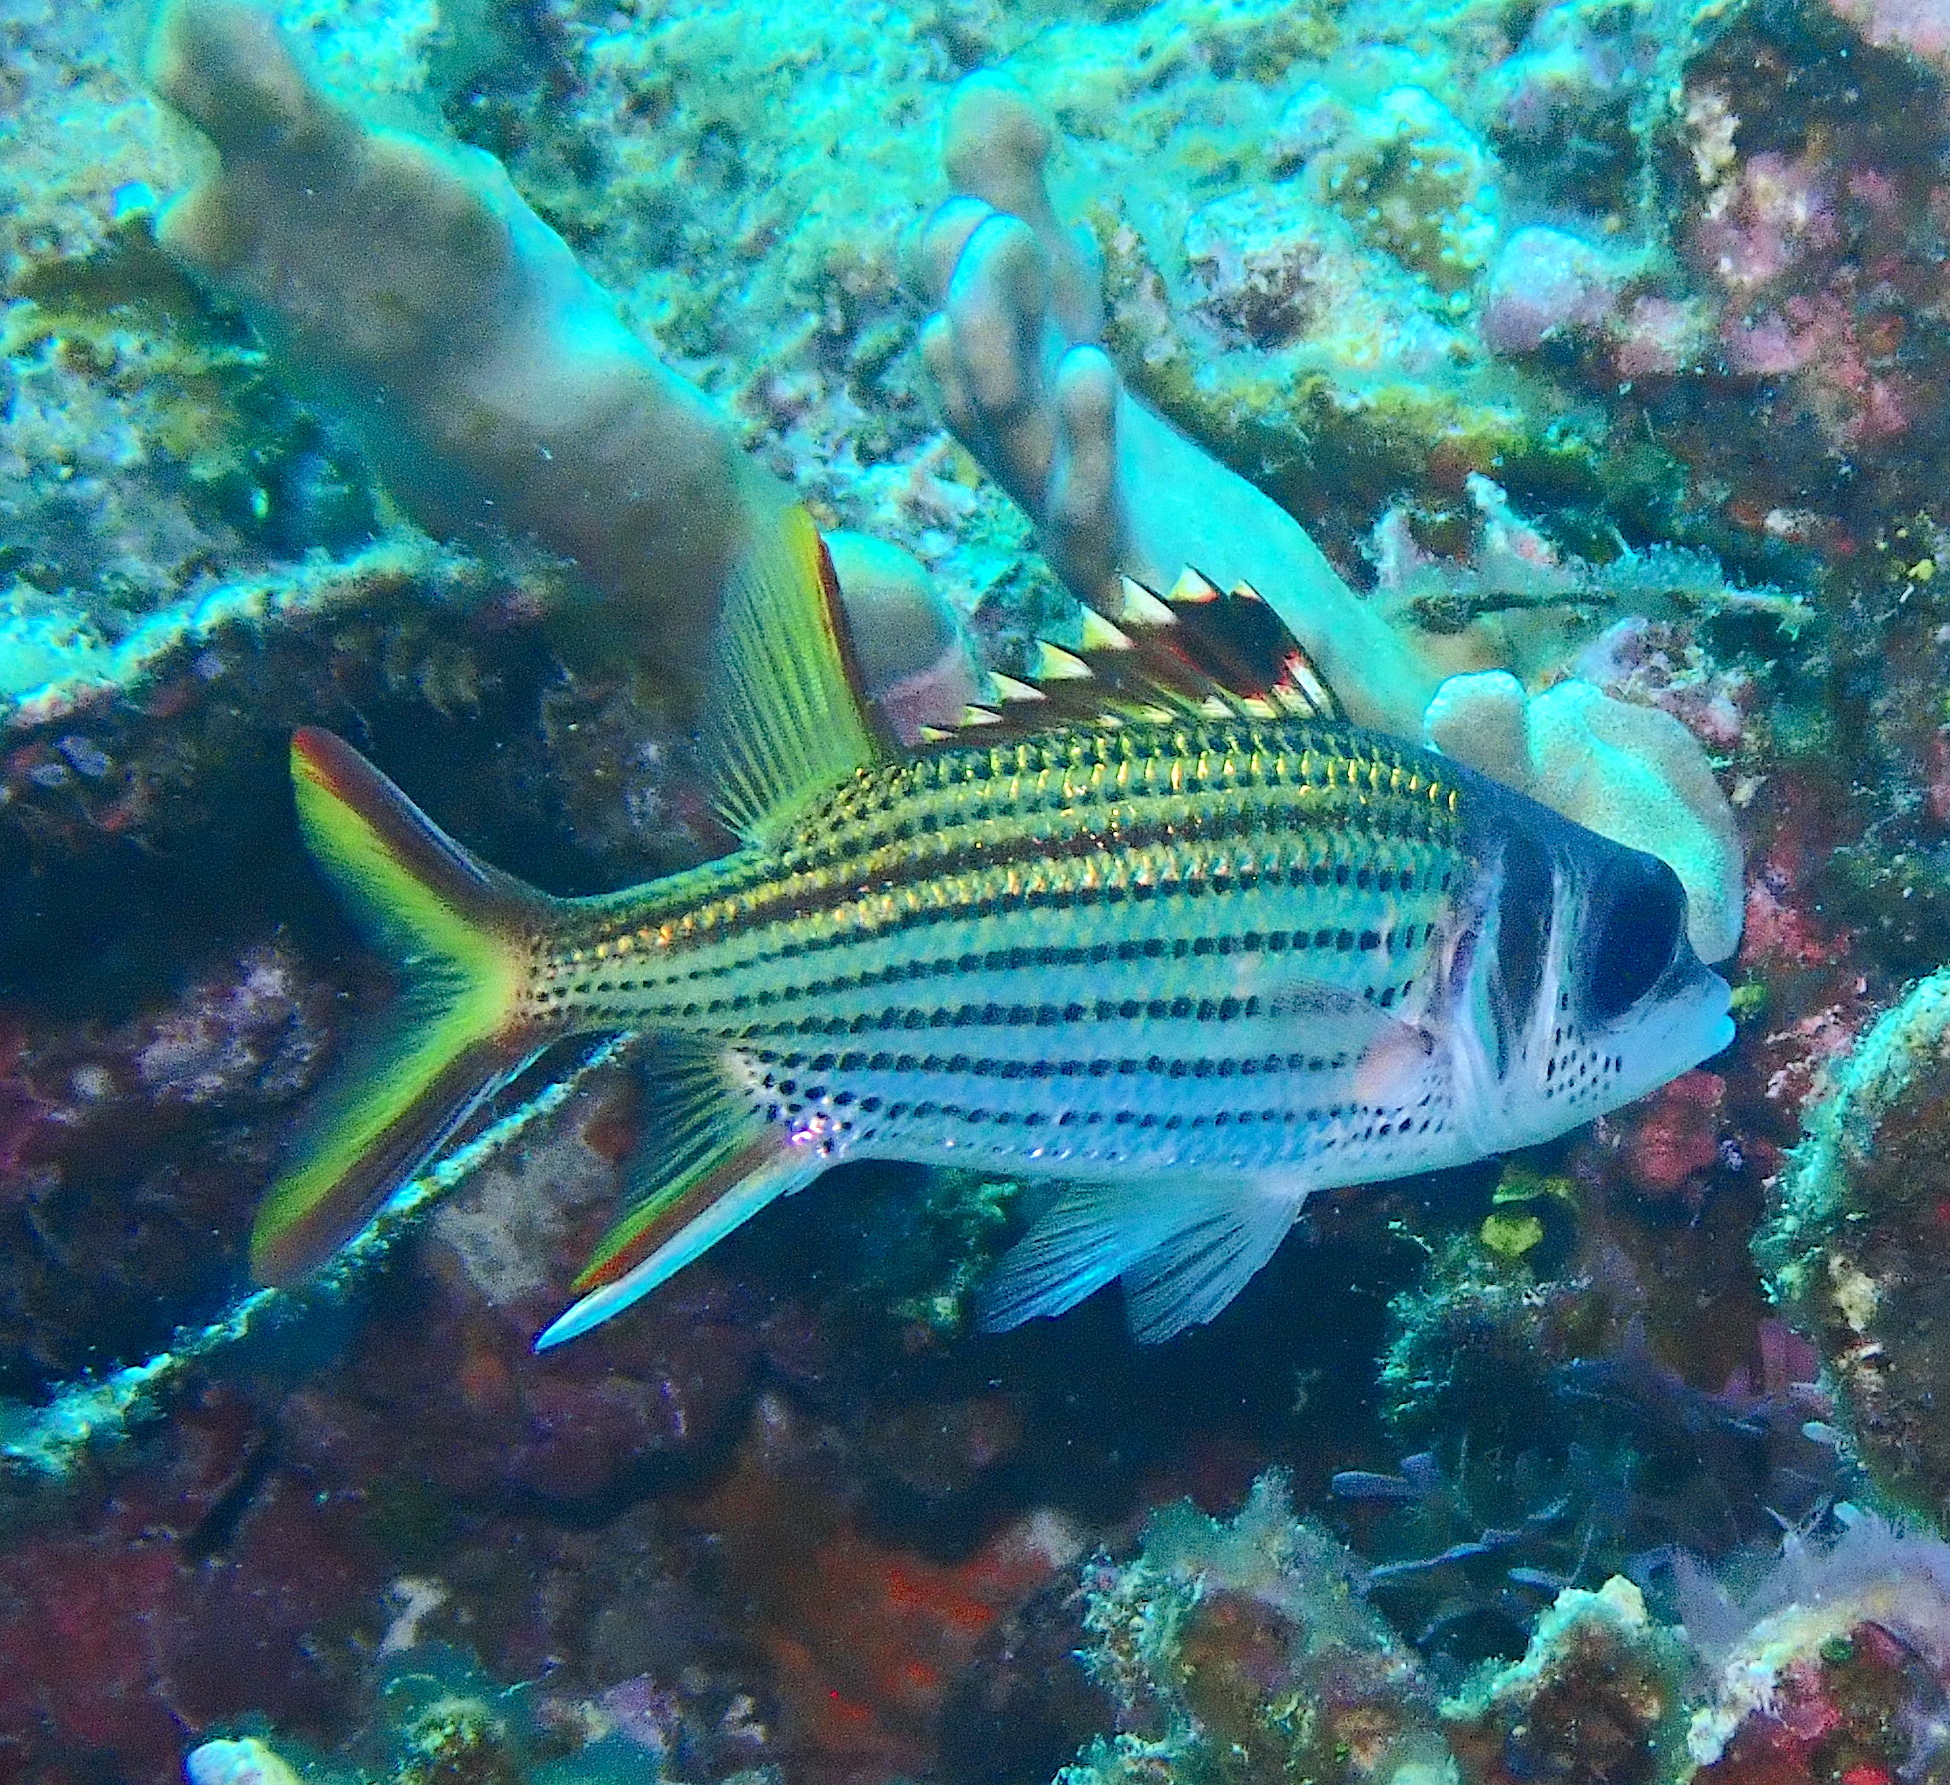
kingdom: Animalia
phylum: Chordata
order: Beryciformes
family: Holocentridae
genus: Neoniphon
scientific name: Neoniphon sammara
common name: Sammara squirrelfish
